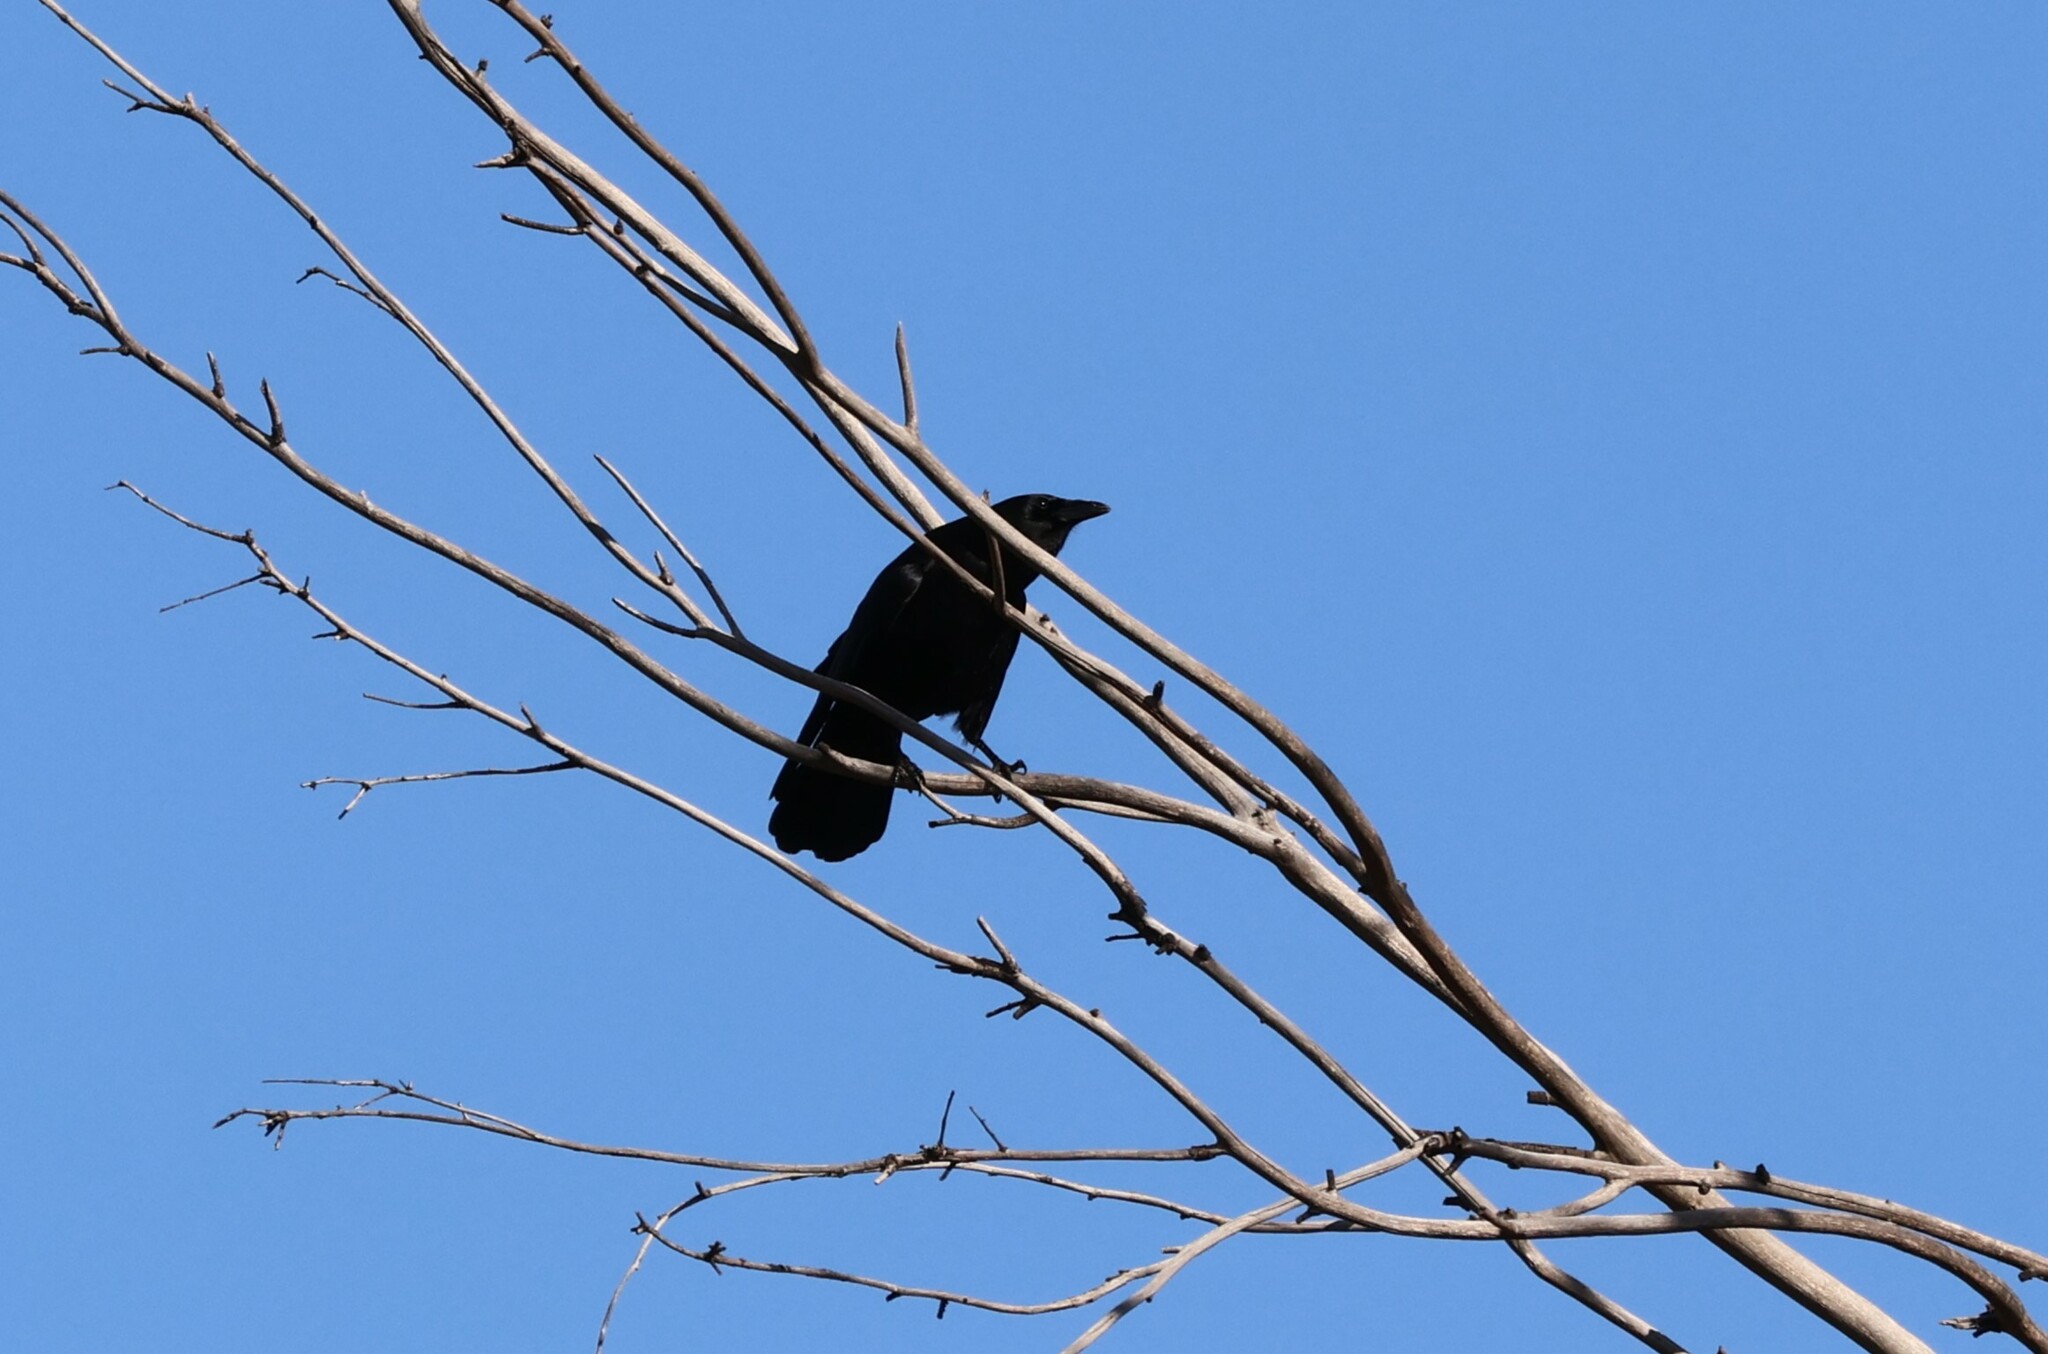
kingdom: Animalia
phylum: Chordata
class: Aves
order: Passeriformes
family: Corvidae
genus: Corvus
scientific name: Corvus brachyrhynchos
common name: American crow
